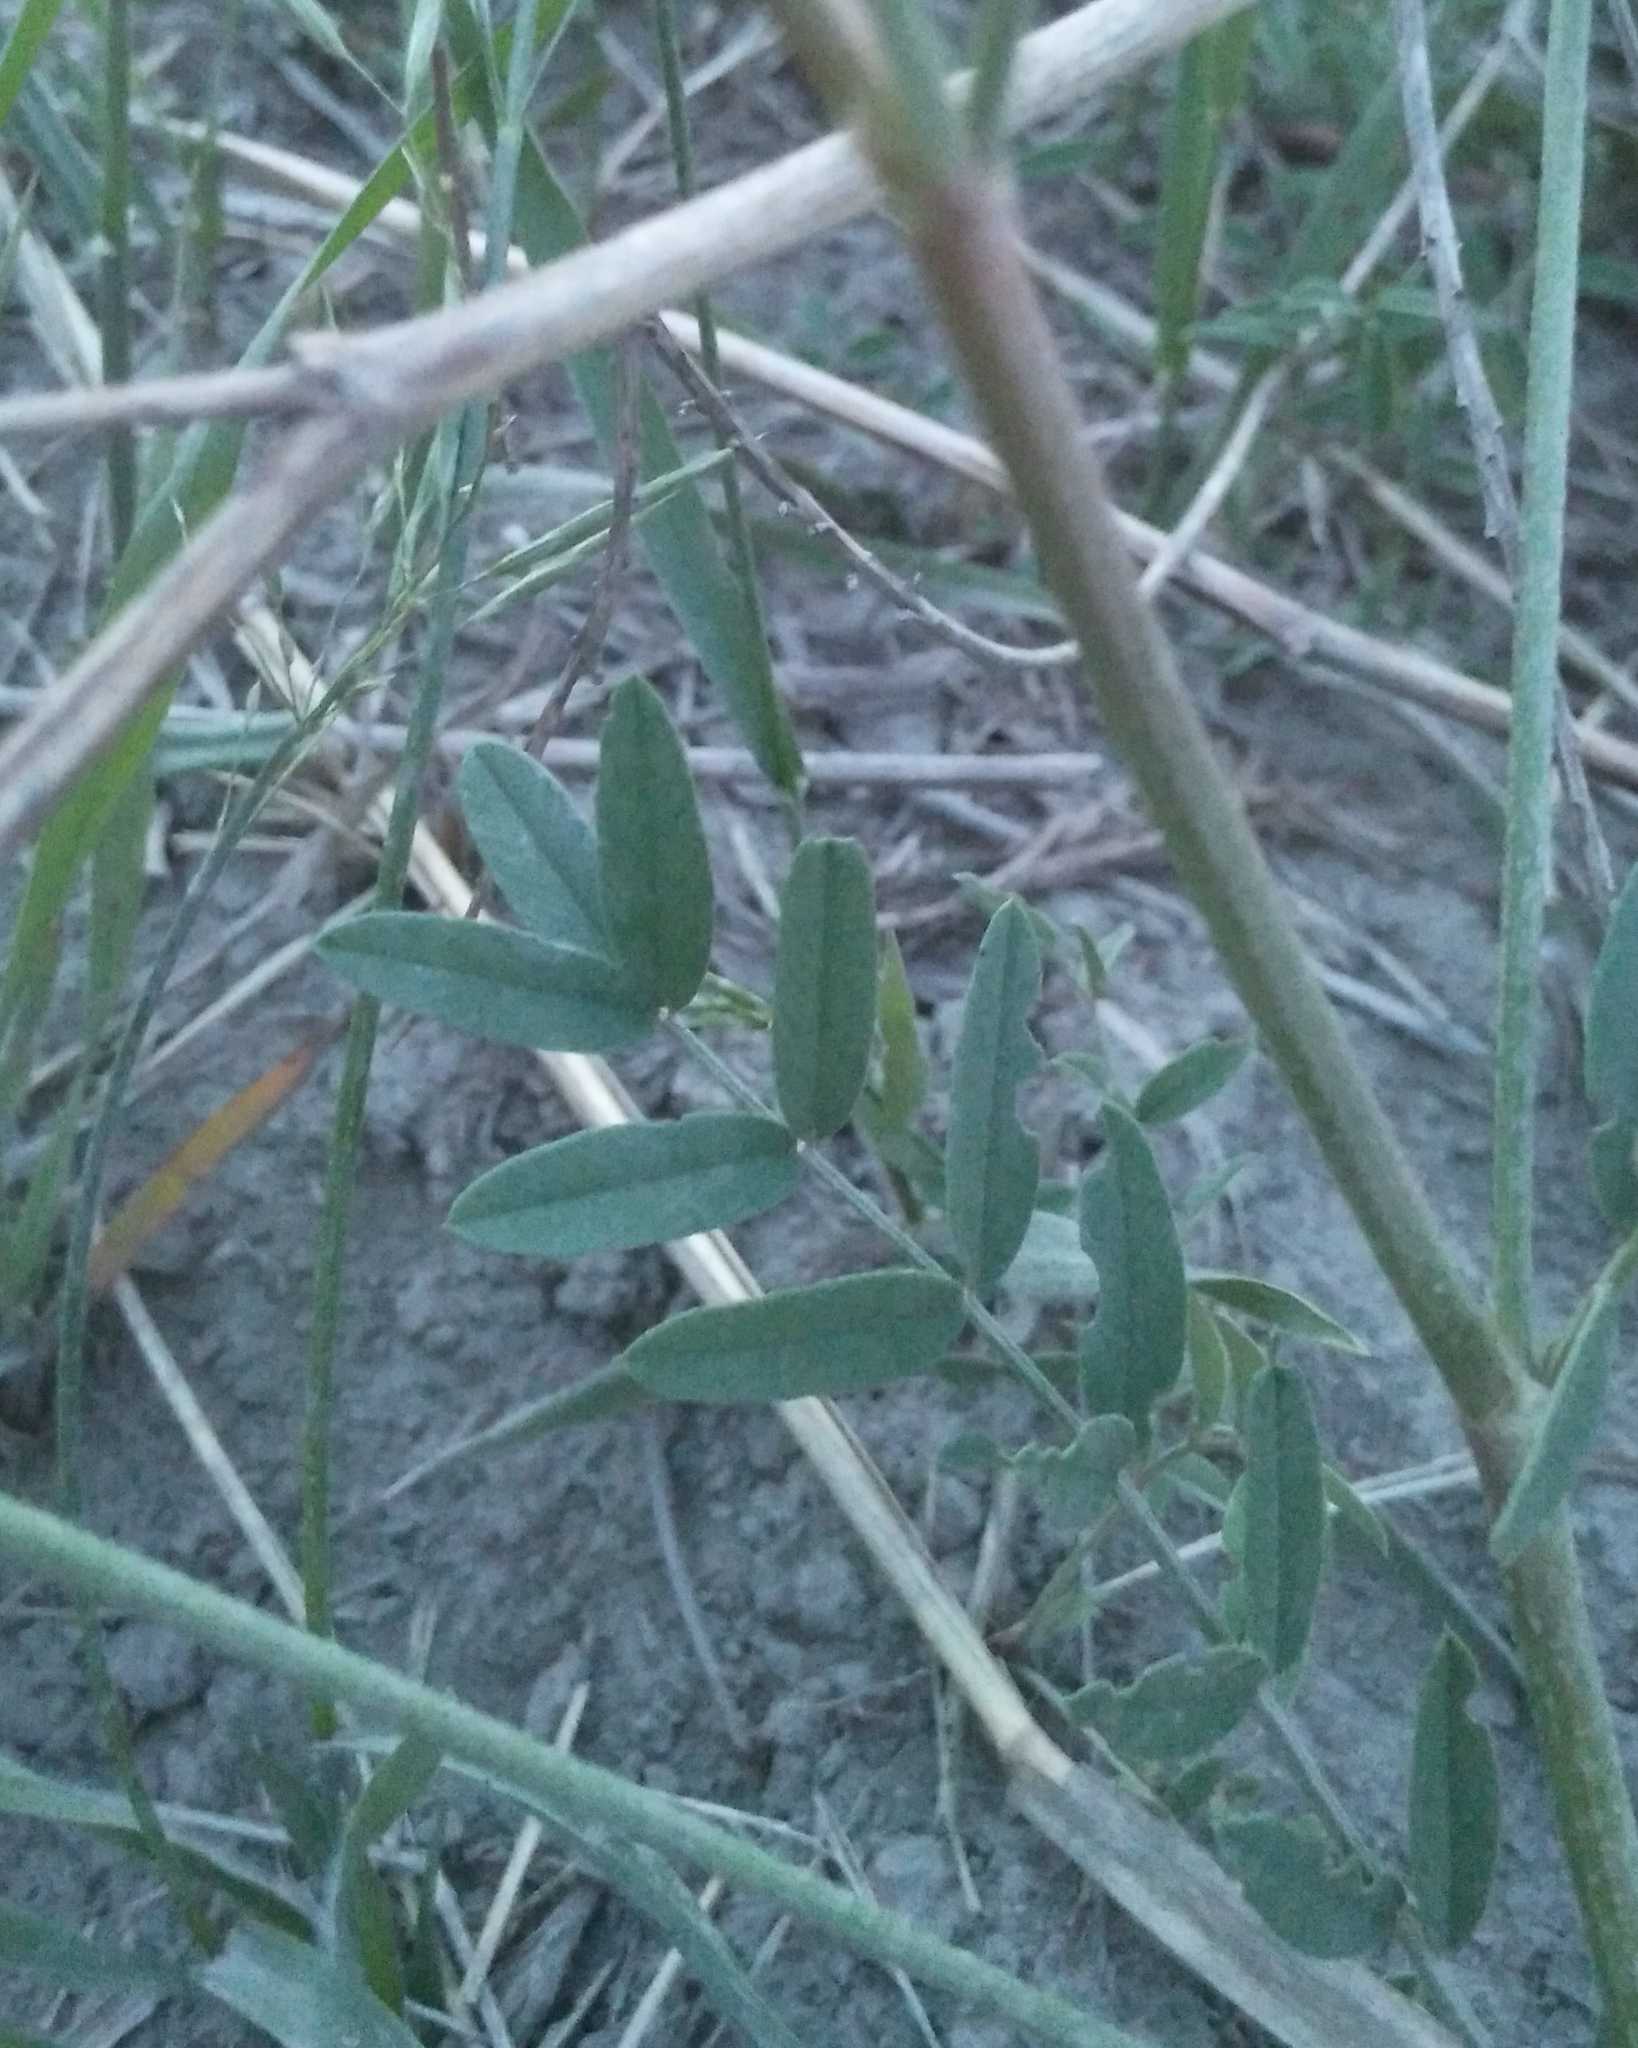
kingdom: Plantae
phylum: Tracheophyta
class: Magnoliopsida
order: Fabales
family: Fabaceae
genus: Onobrychis
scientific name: Onobrychis arenaria
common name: Sand esparcet
